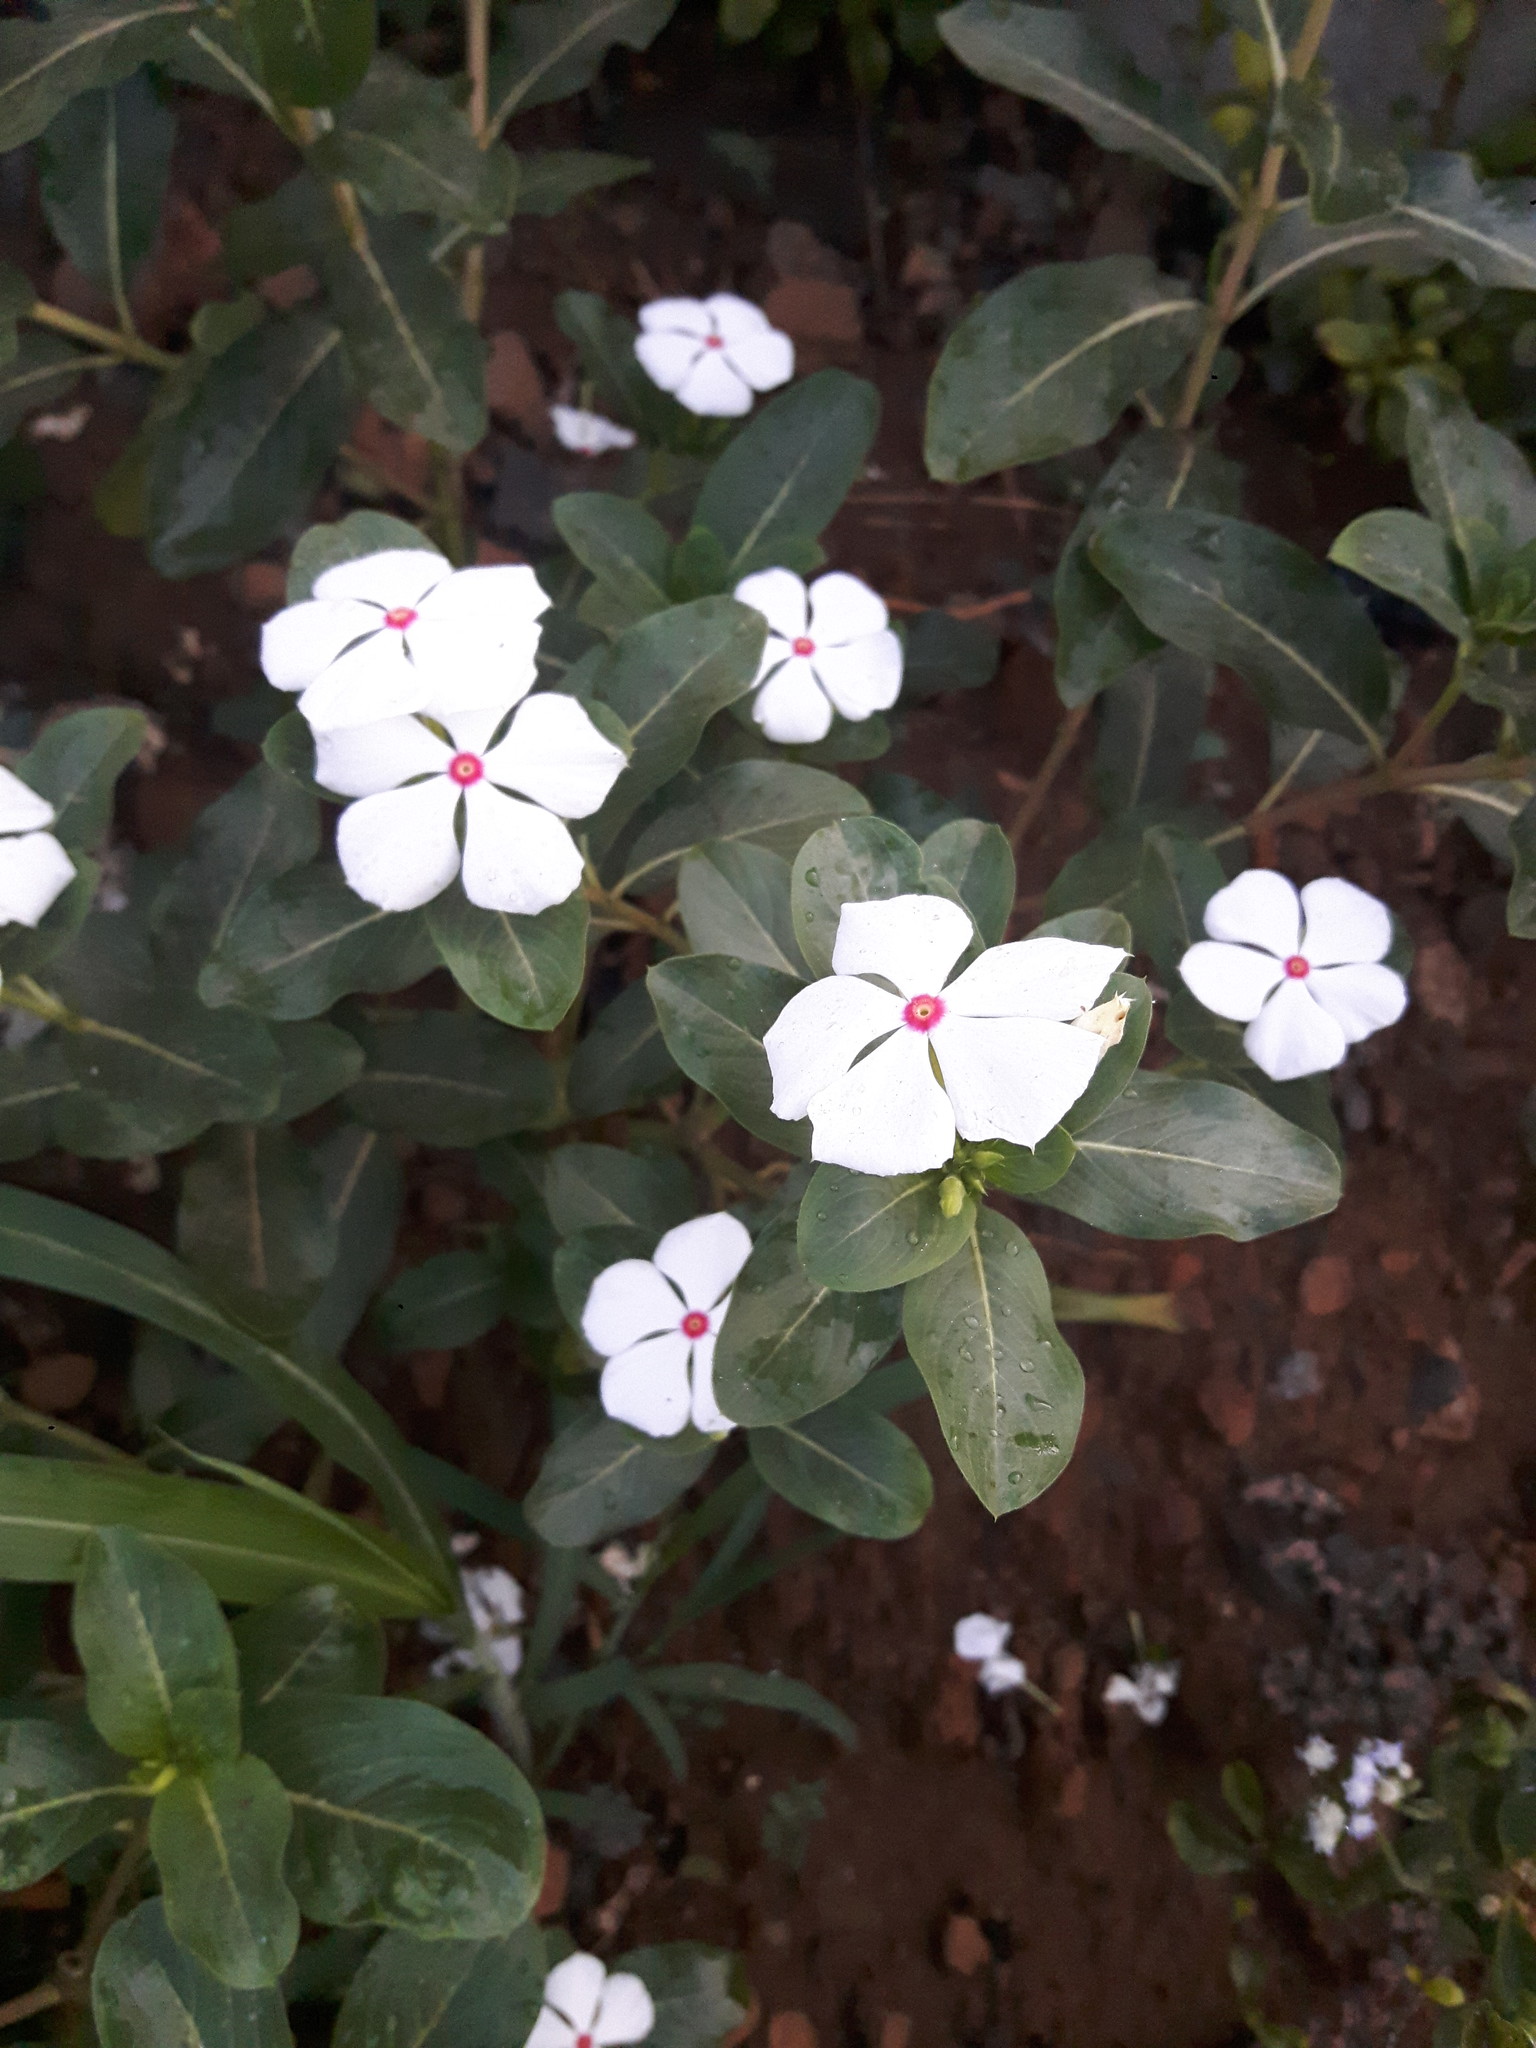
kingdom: Plantae
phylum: Tracheophyta
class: Magnoliopsida
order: Gentianales
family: Apocynaceae
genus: Catharanthus
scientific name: Catharanthus roseus
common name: Madagascar periwinkle
